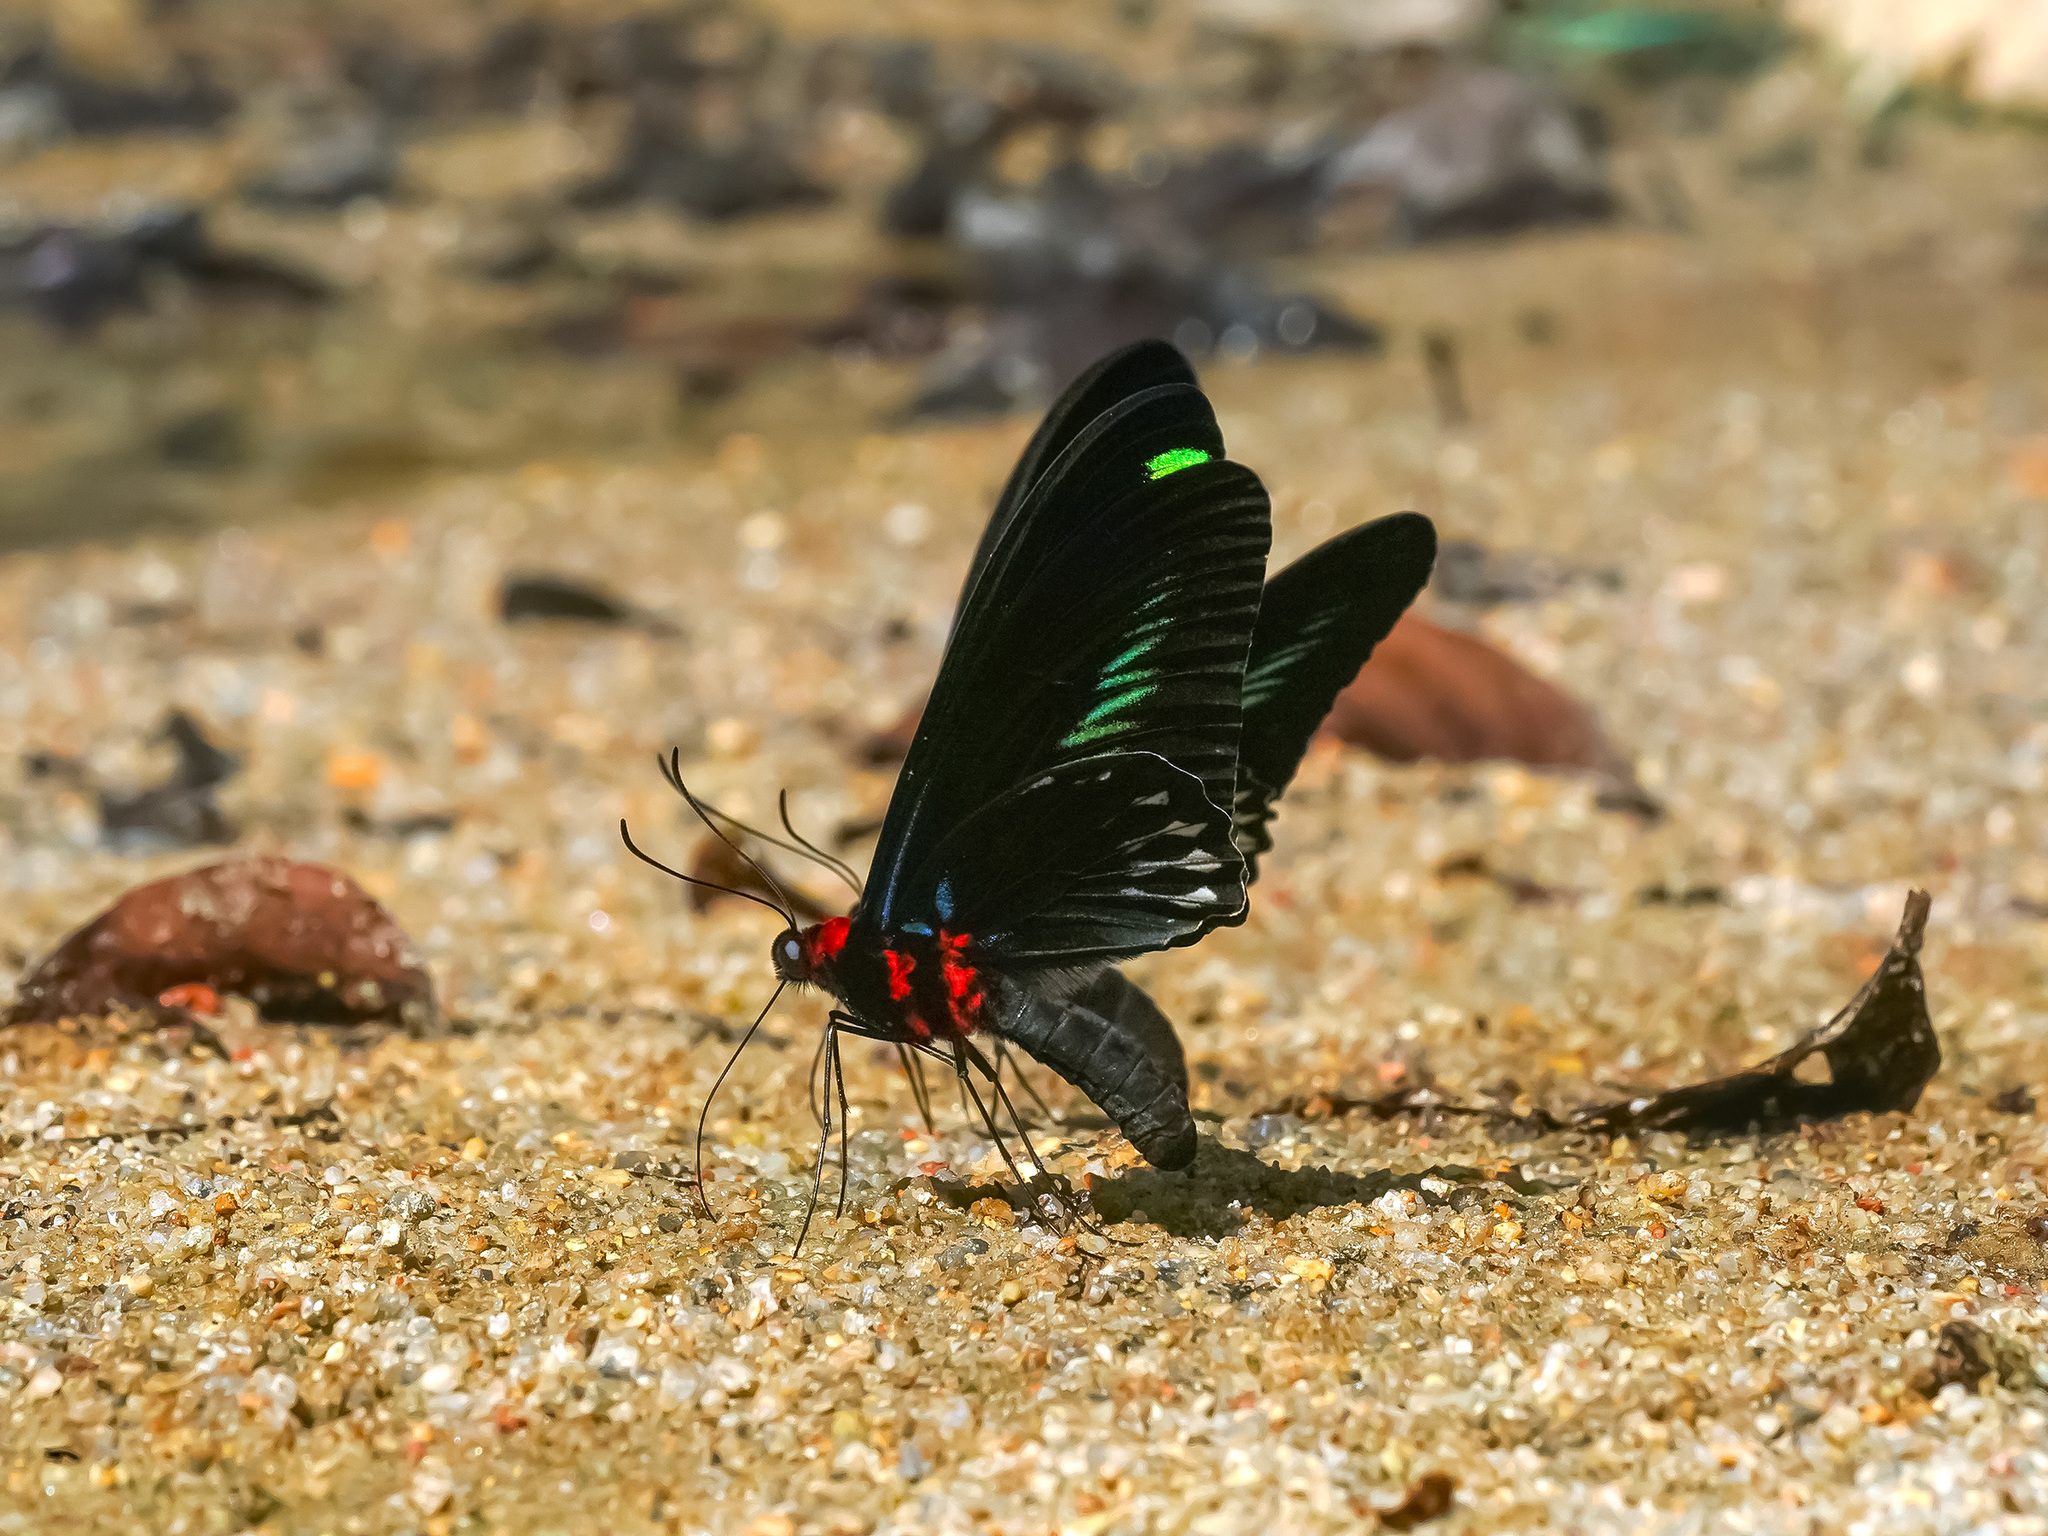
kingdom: Animalia
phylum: Arthropoda
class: Insecta
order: Lepidoptera
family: Papilionidae
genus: Trogonoptera
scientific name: Trogonoptera brookiana
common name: Raja brooke's birdwing
